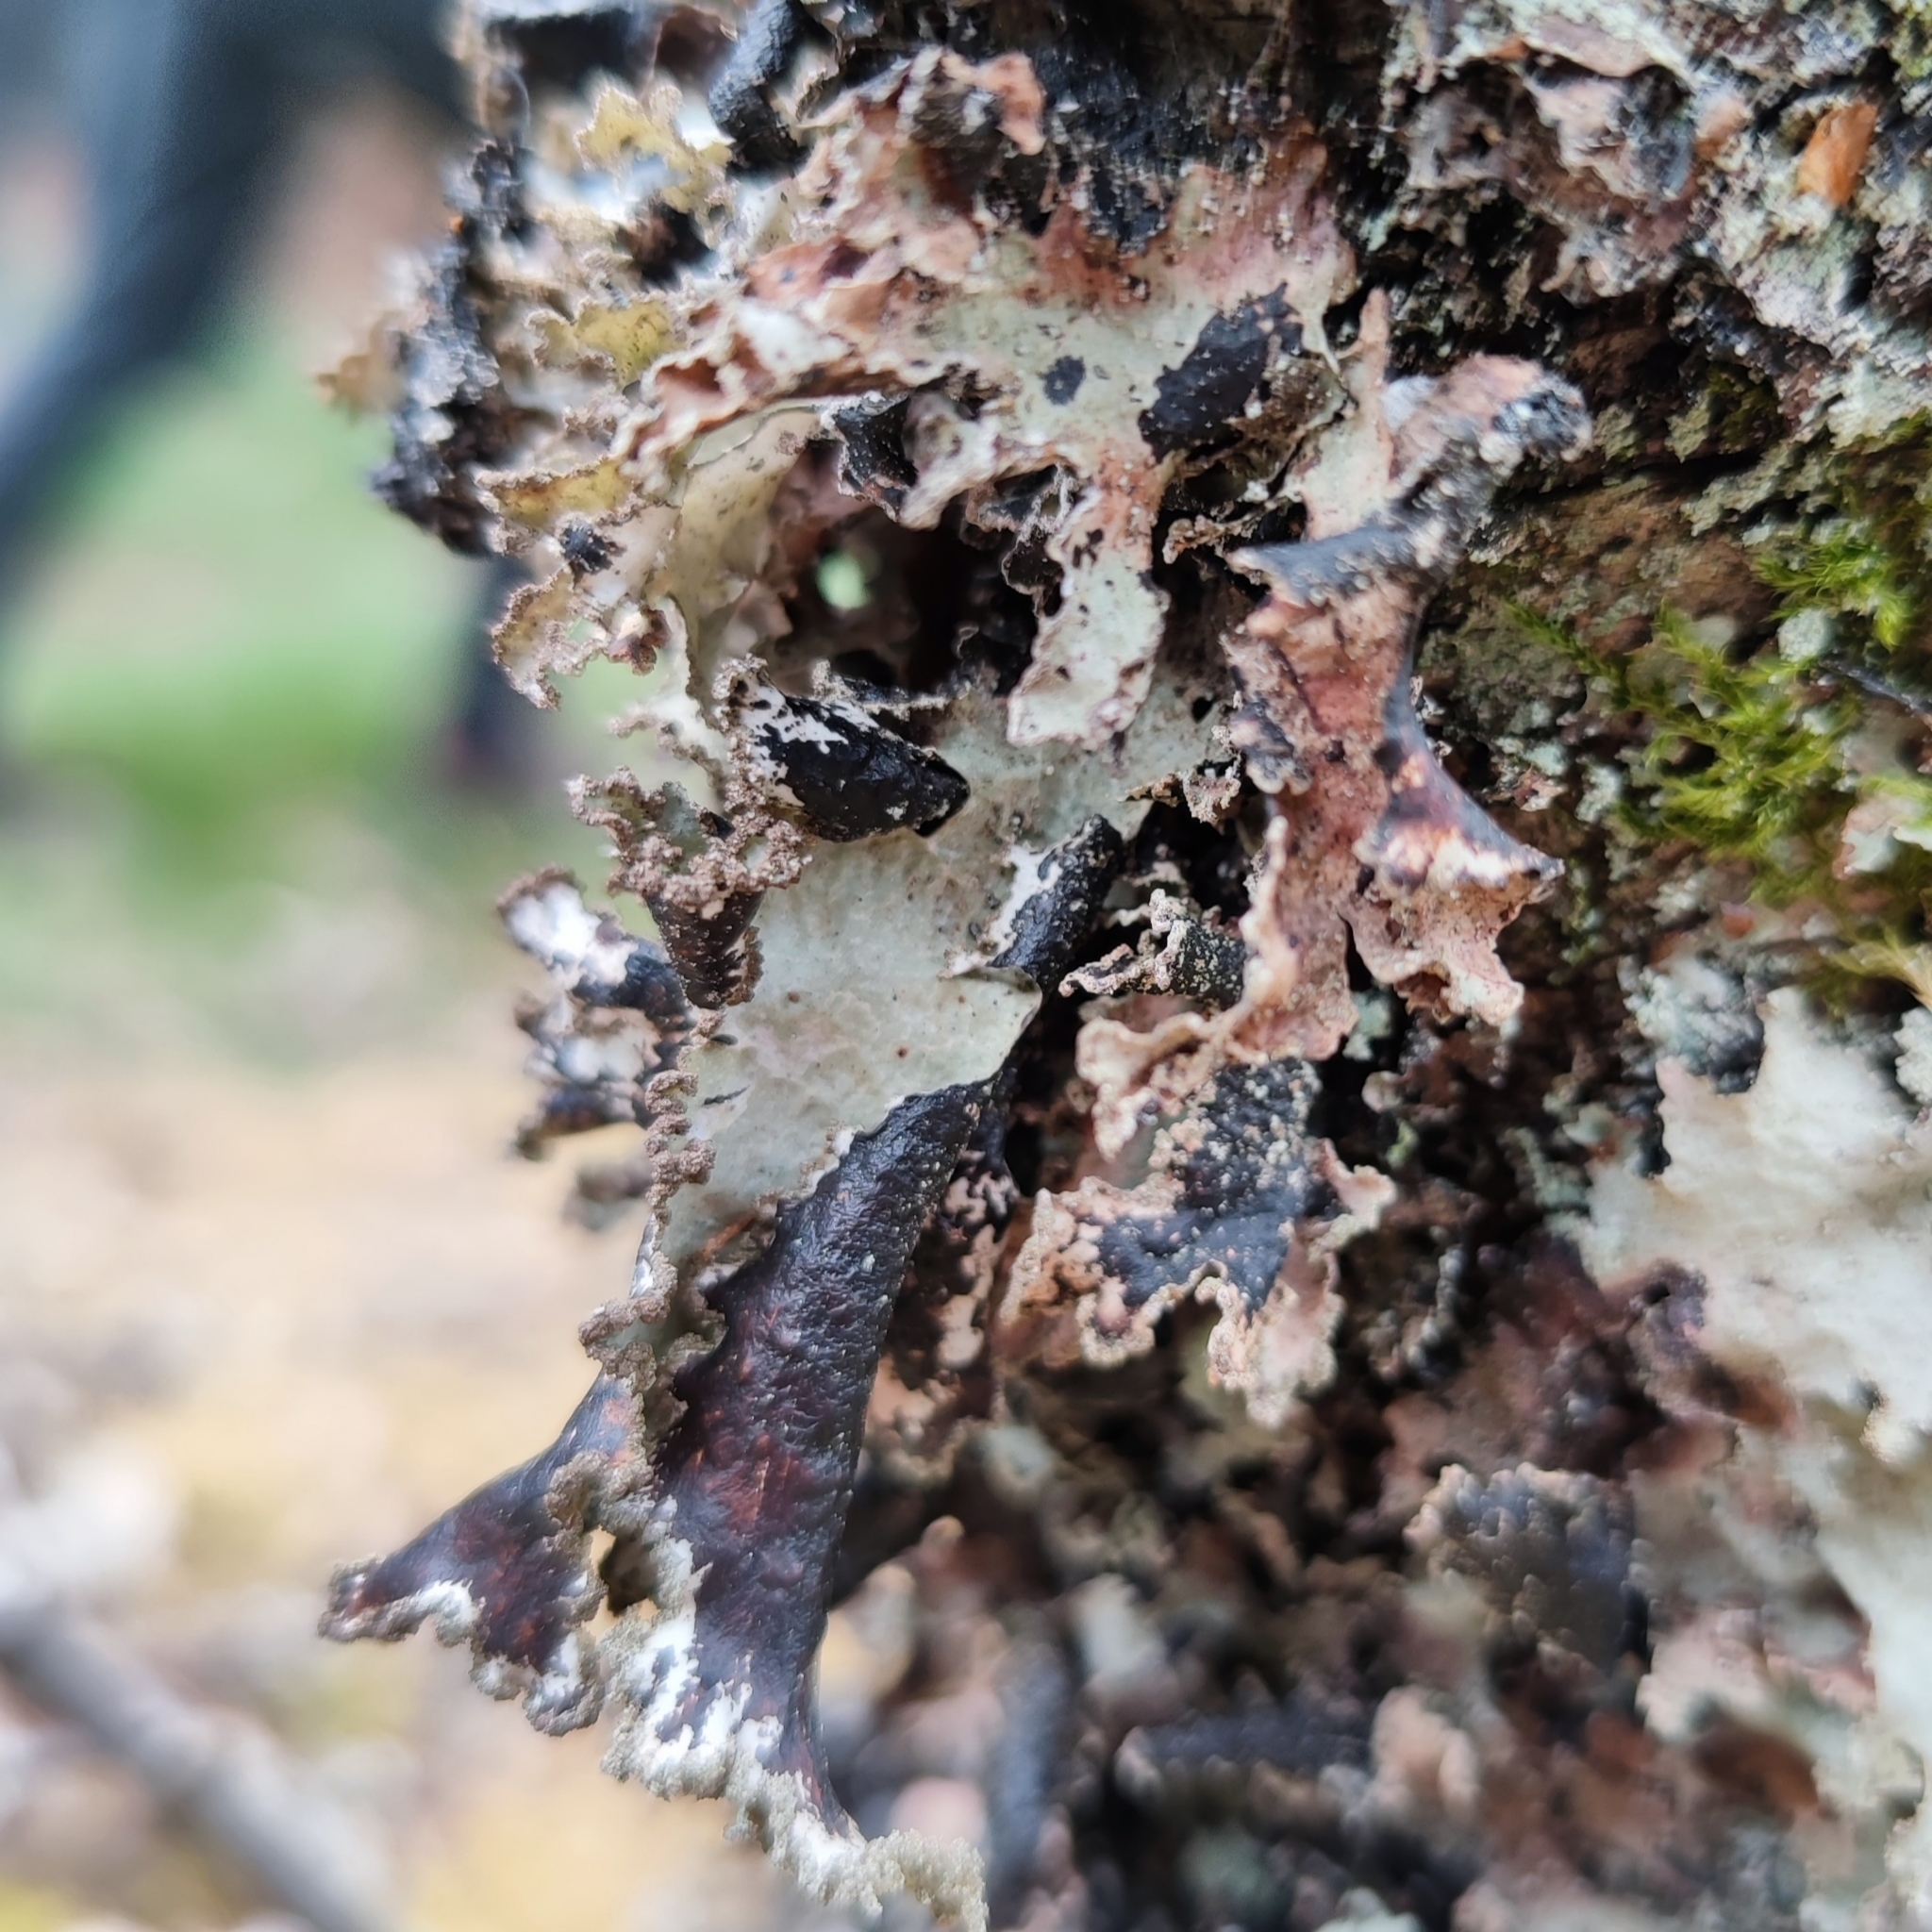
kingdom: Fungi
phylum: Ascomycota
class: Lecanoromycetes
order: Lecanorales
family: Parmeliaceae
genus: Platismatia
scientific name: Platismatia glauca
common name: Varied rag lichen
